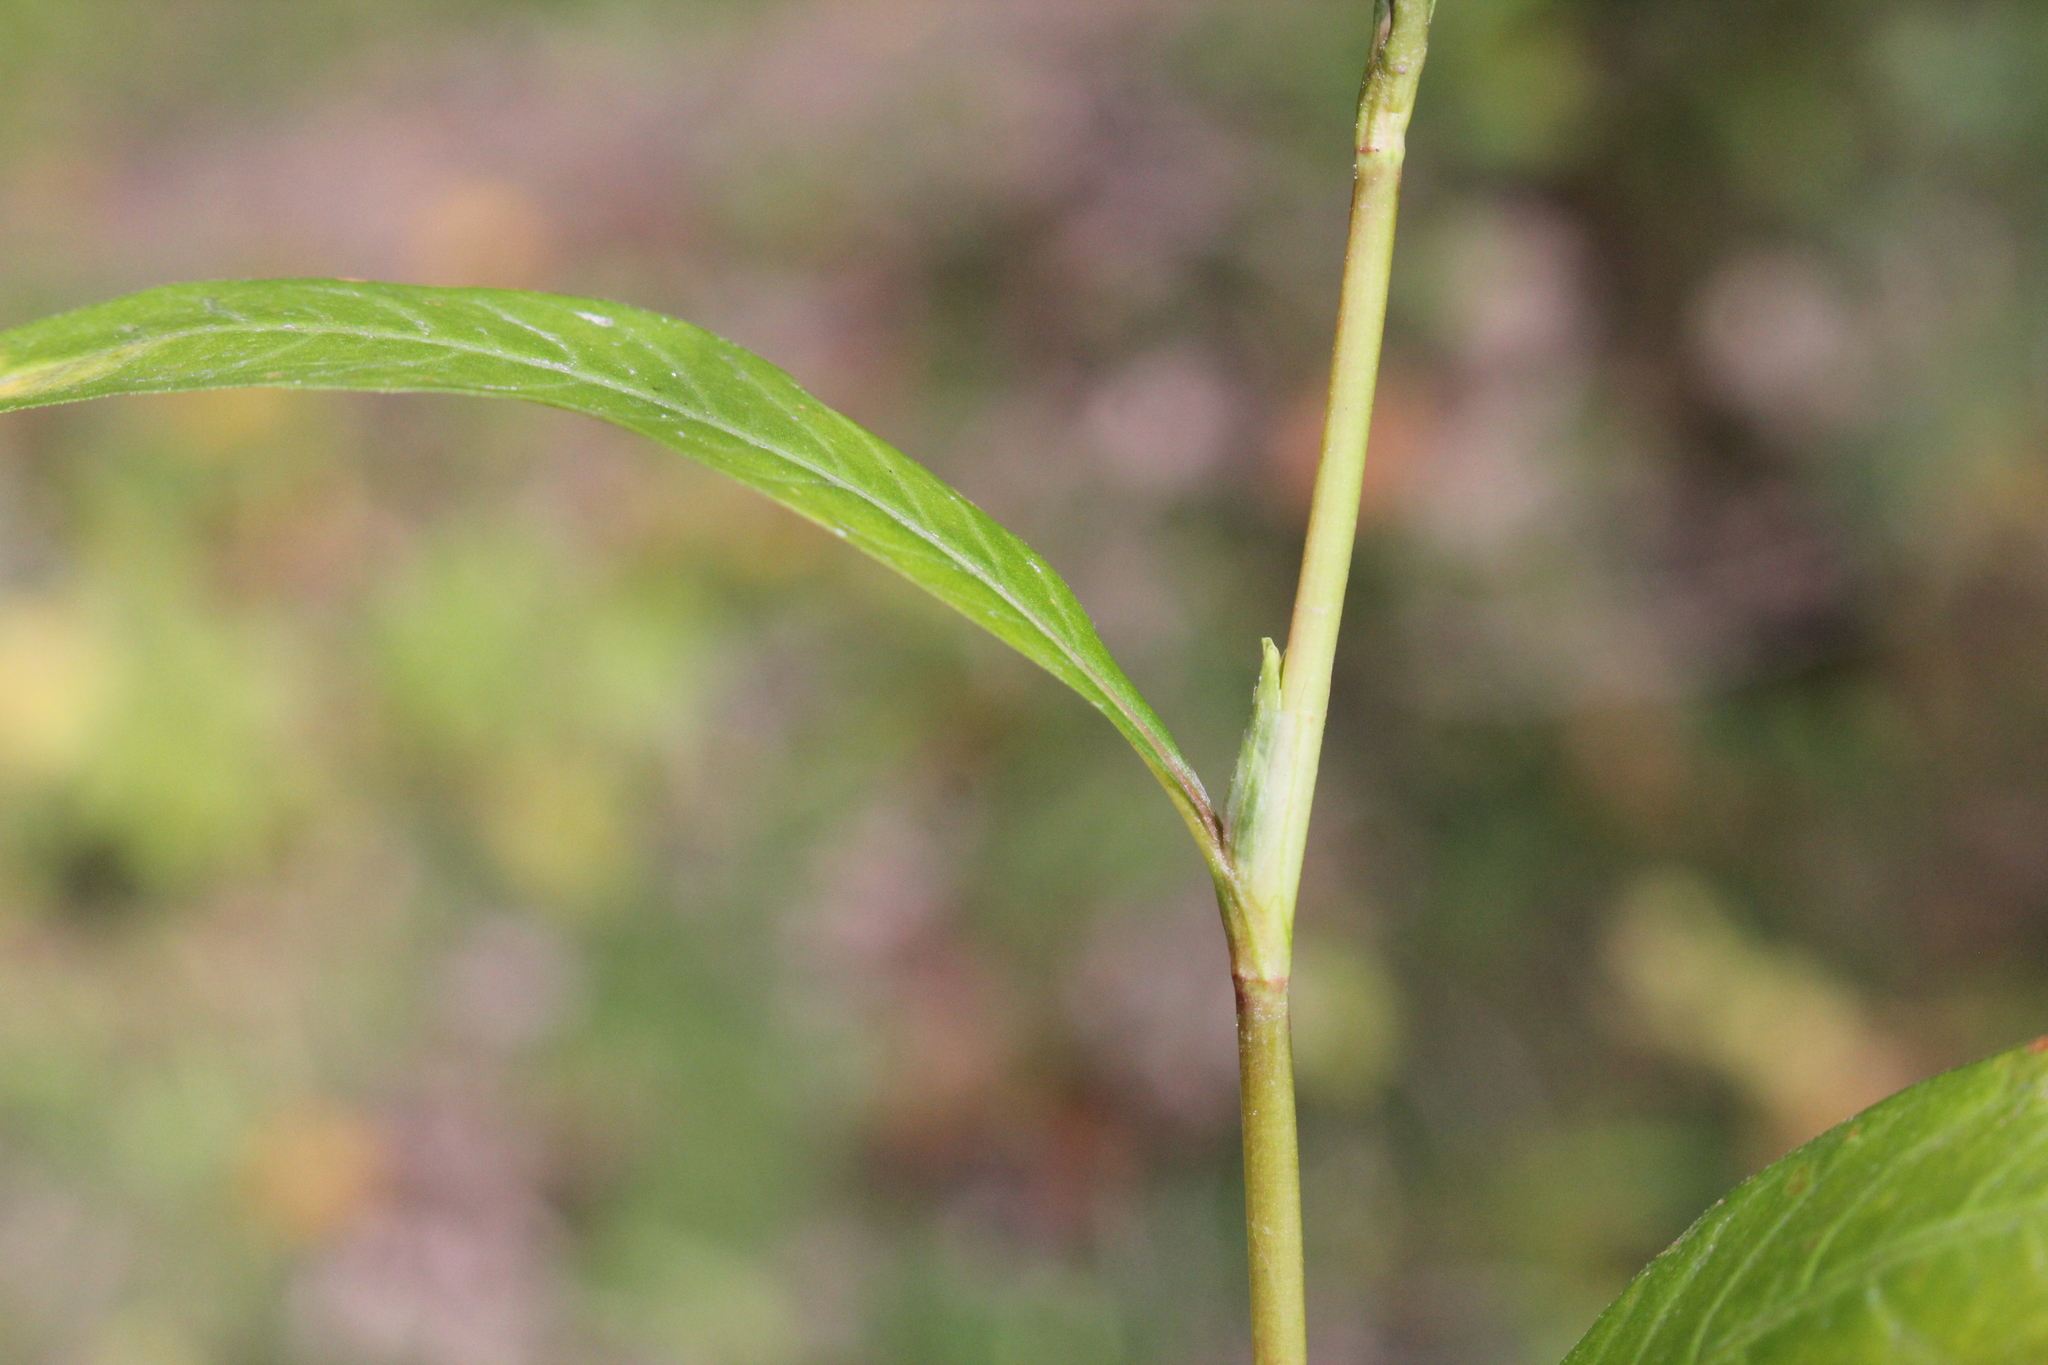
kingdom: Plantae
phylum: Tracheophyta
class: Magnoliopsida
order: Caryophyllales
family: Polygonaceae
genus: Persicaria
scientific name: Persicaria hydropiper
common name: Water-pepper
